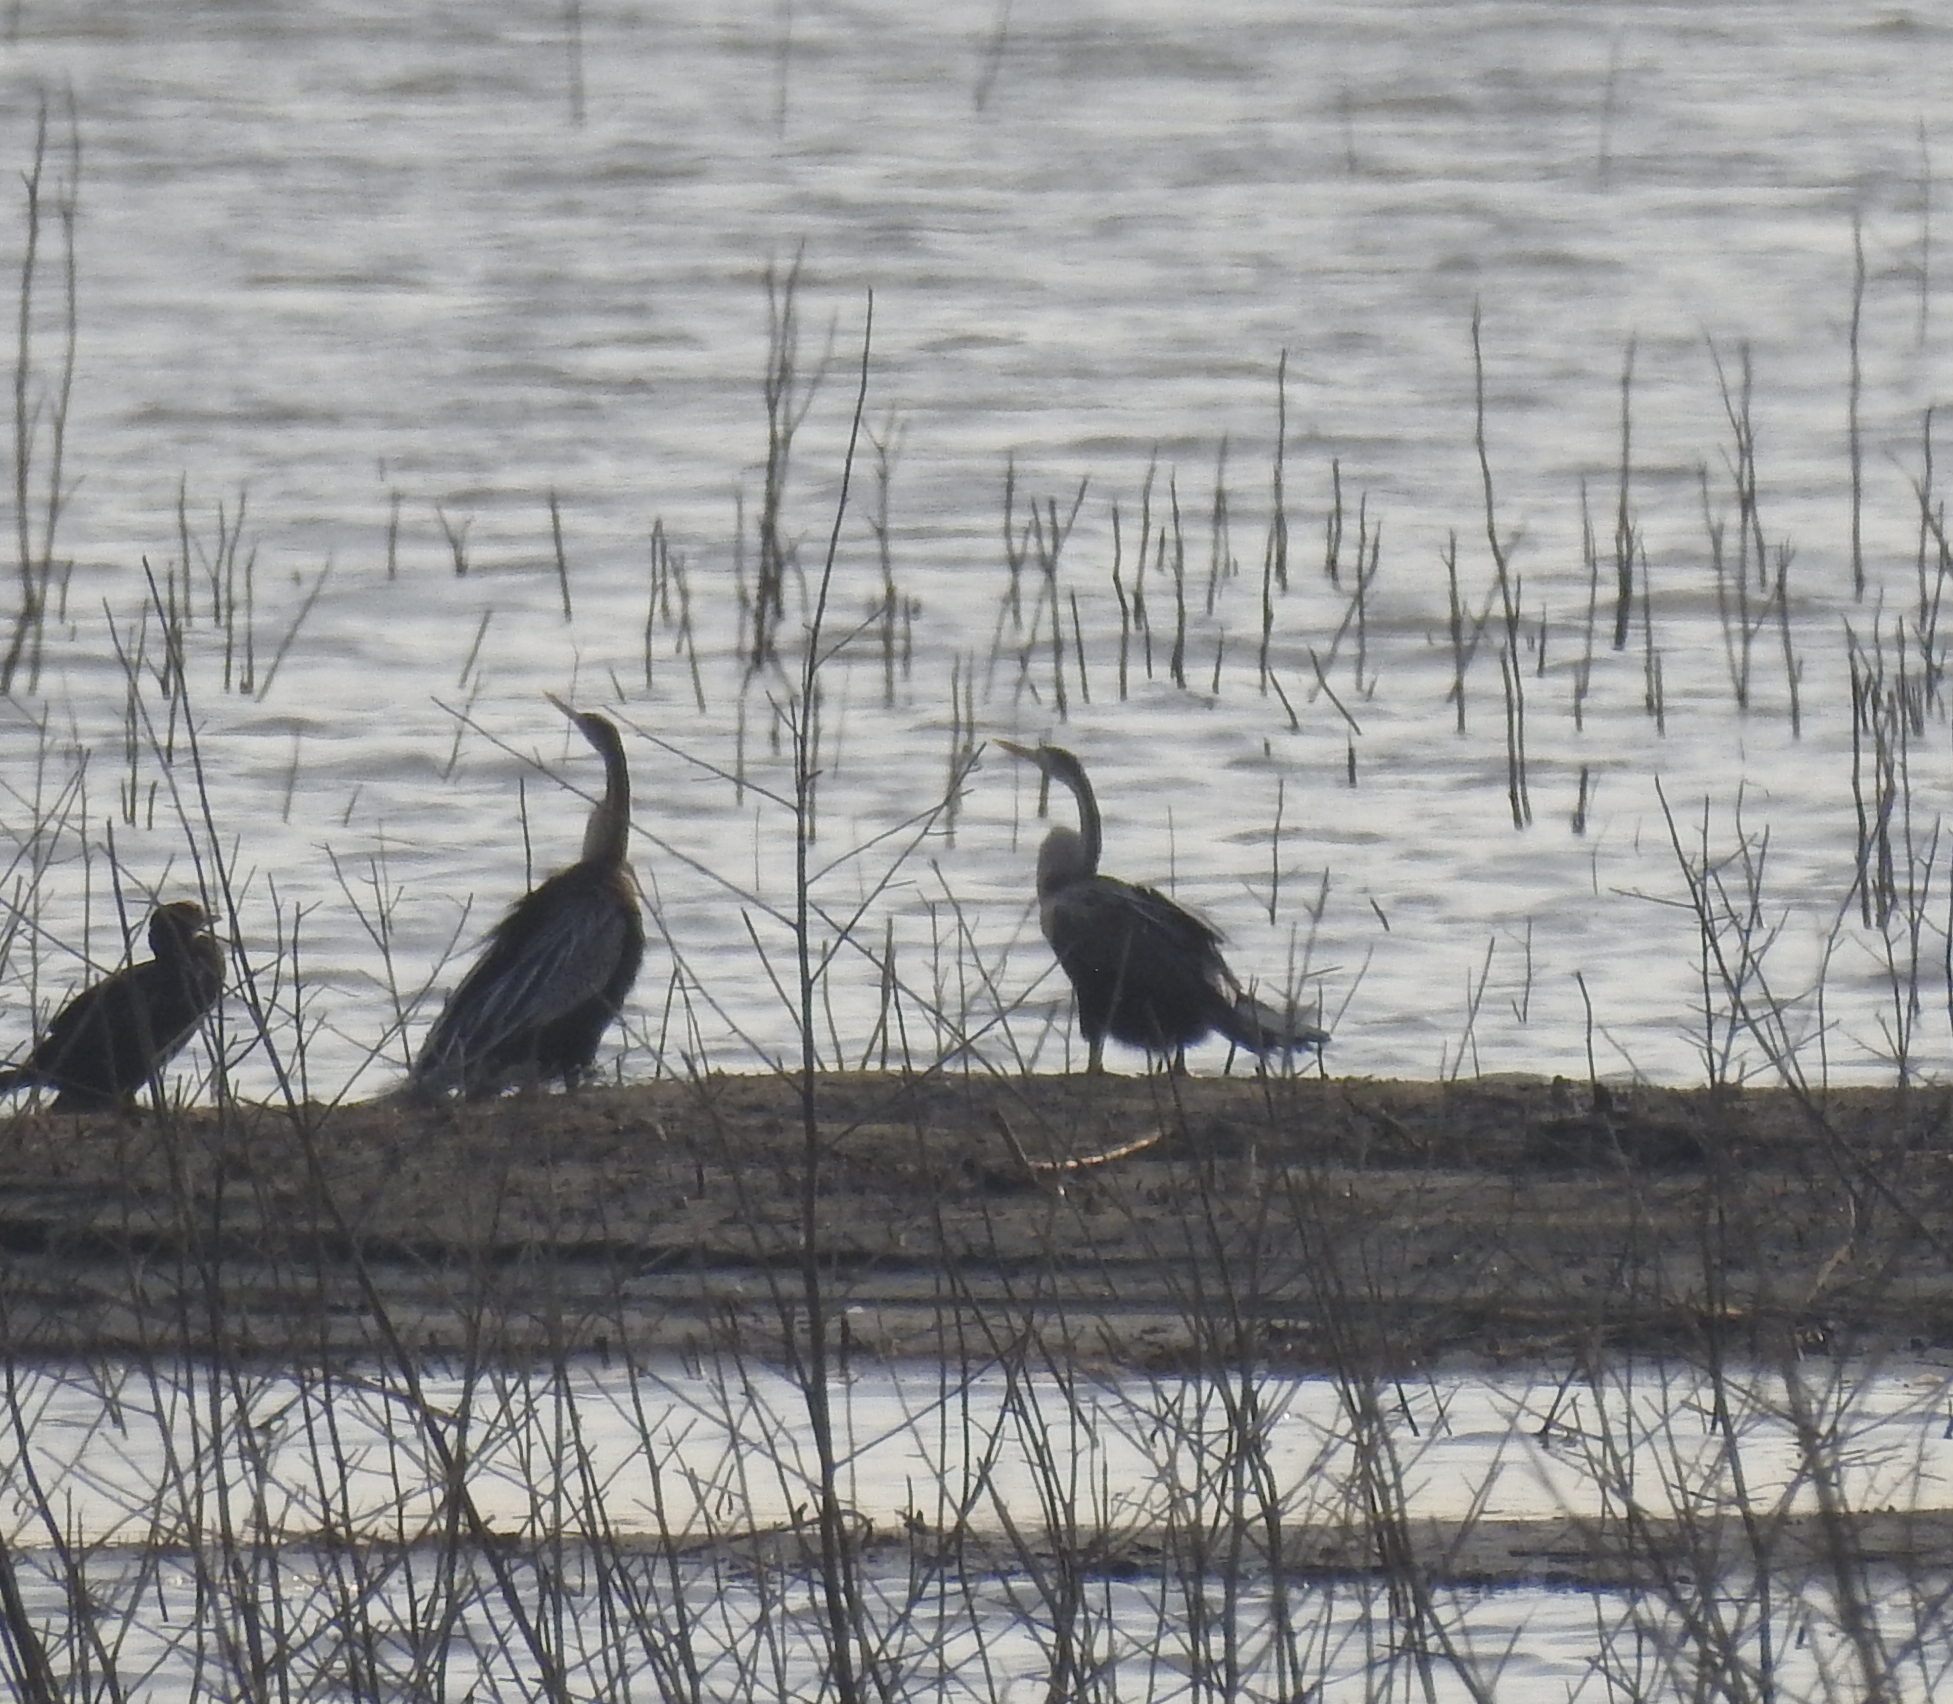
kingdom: Animalia
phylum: Chordata
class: Aves
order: Suliformes
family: Anhingidae
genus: Anhinga
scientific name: Anhinga melanogaster
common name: Oriental darter
